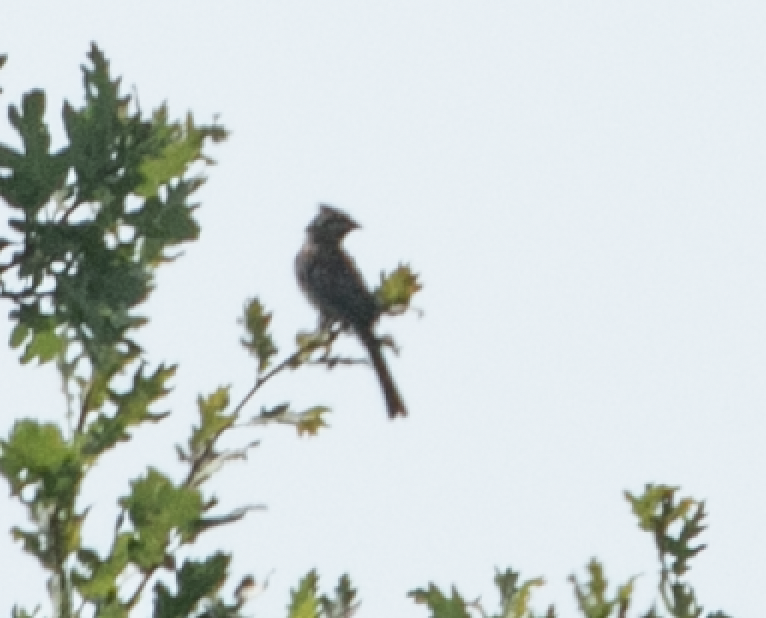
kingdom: Animalia
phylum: Chordata
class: Aves
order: Passeriformes
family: Emberizidae
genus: Emberiza
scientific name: Emberiza cirlus
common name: Cirl bunting
